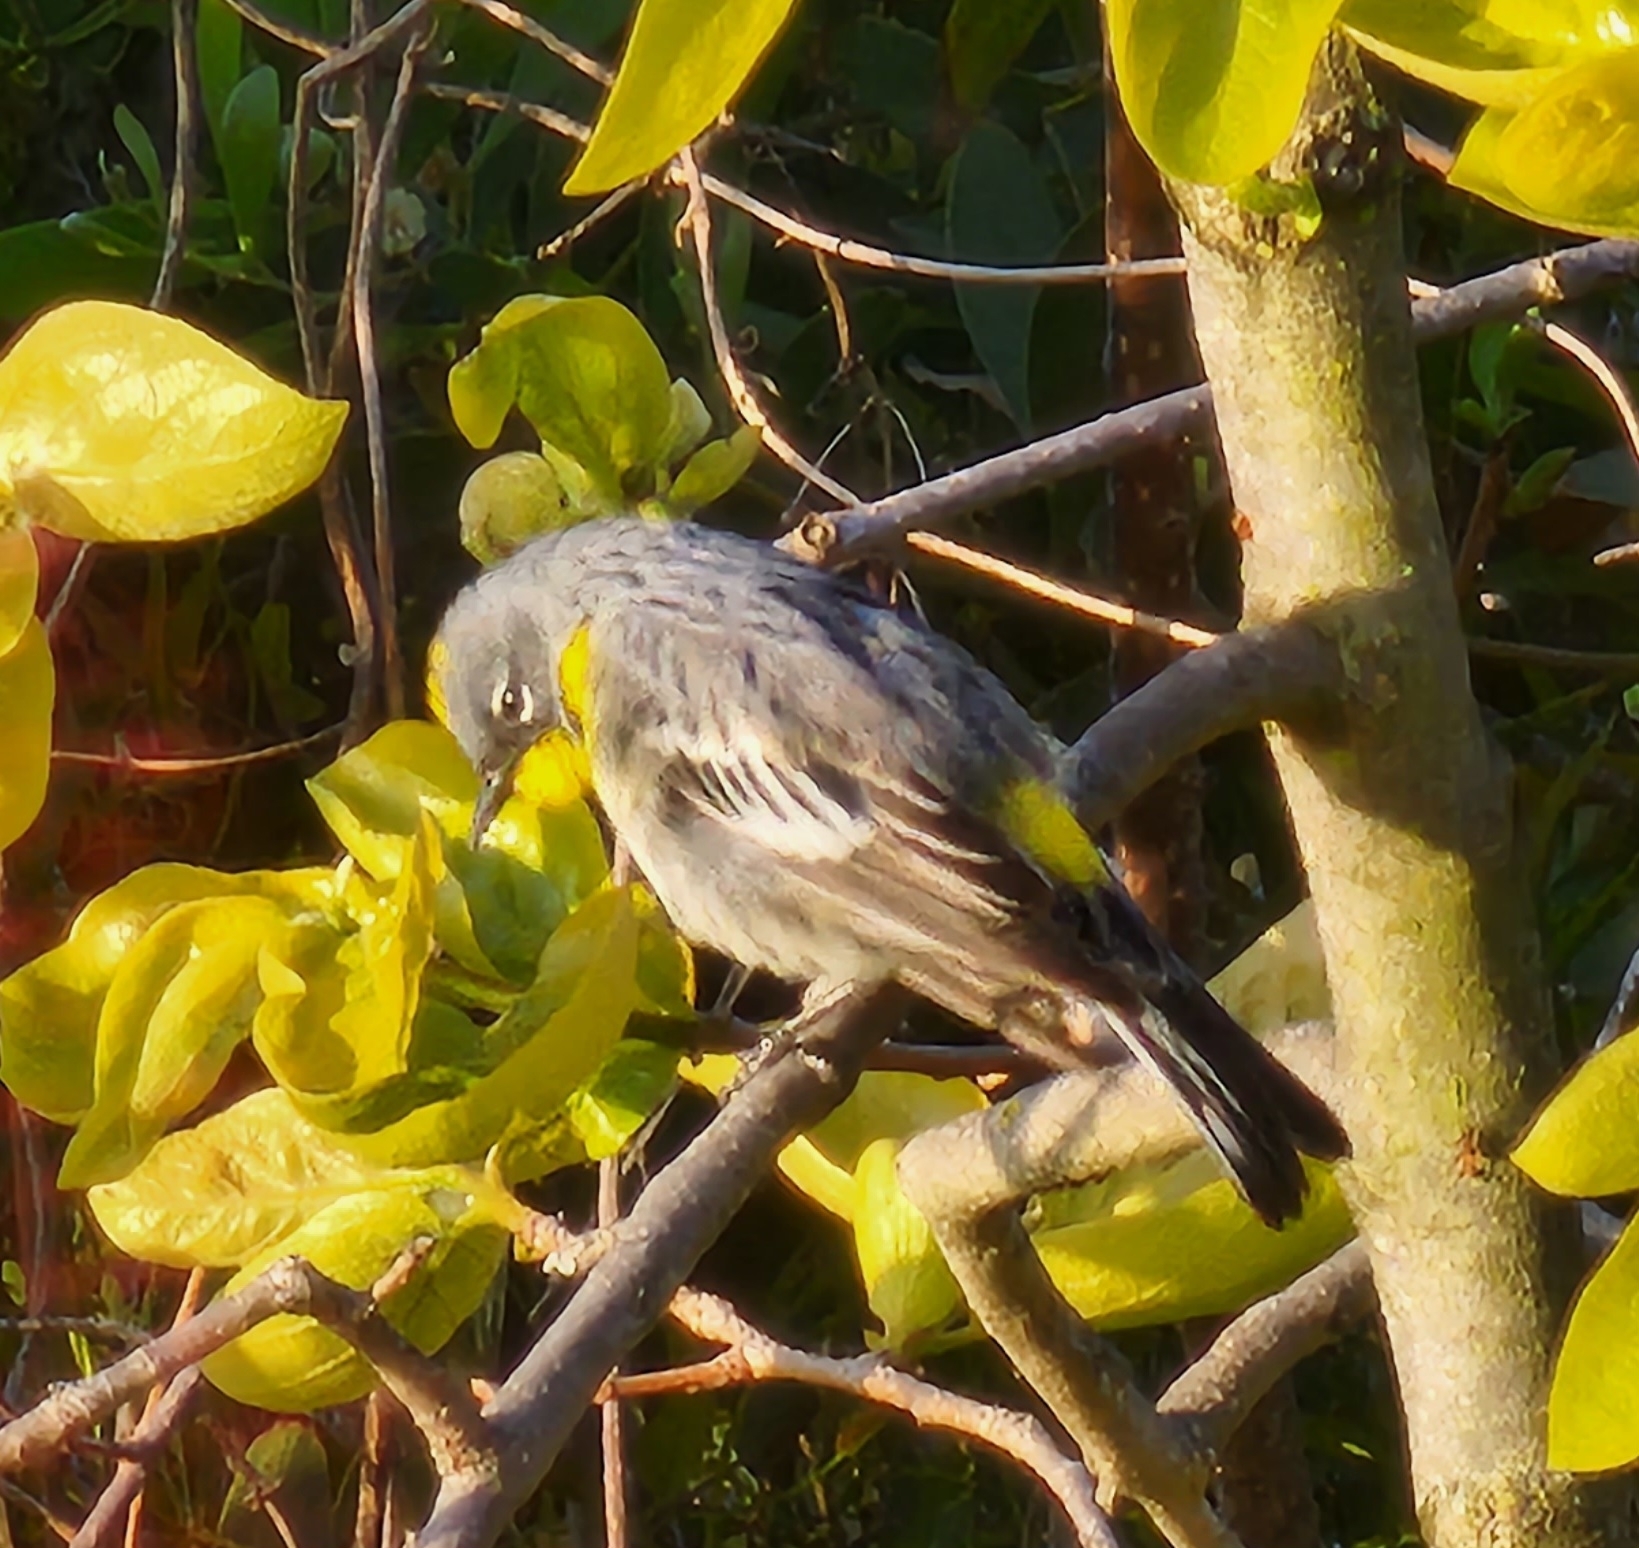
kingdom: Animalia
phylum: Chordata
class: Aves
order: Passeriformes
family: Parulidae
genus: Setophaga
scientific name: Setophaga coronata
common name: Myrtle warbler
